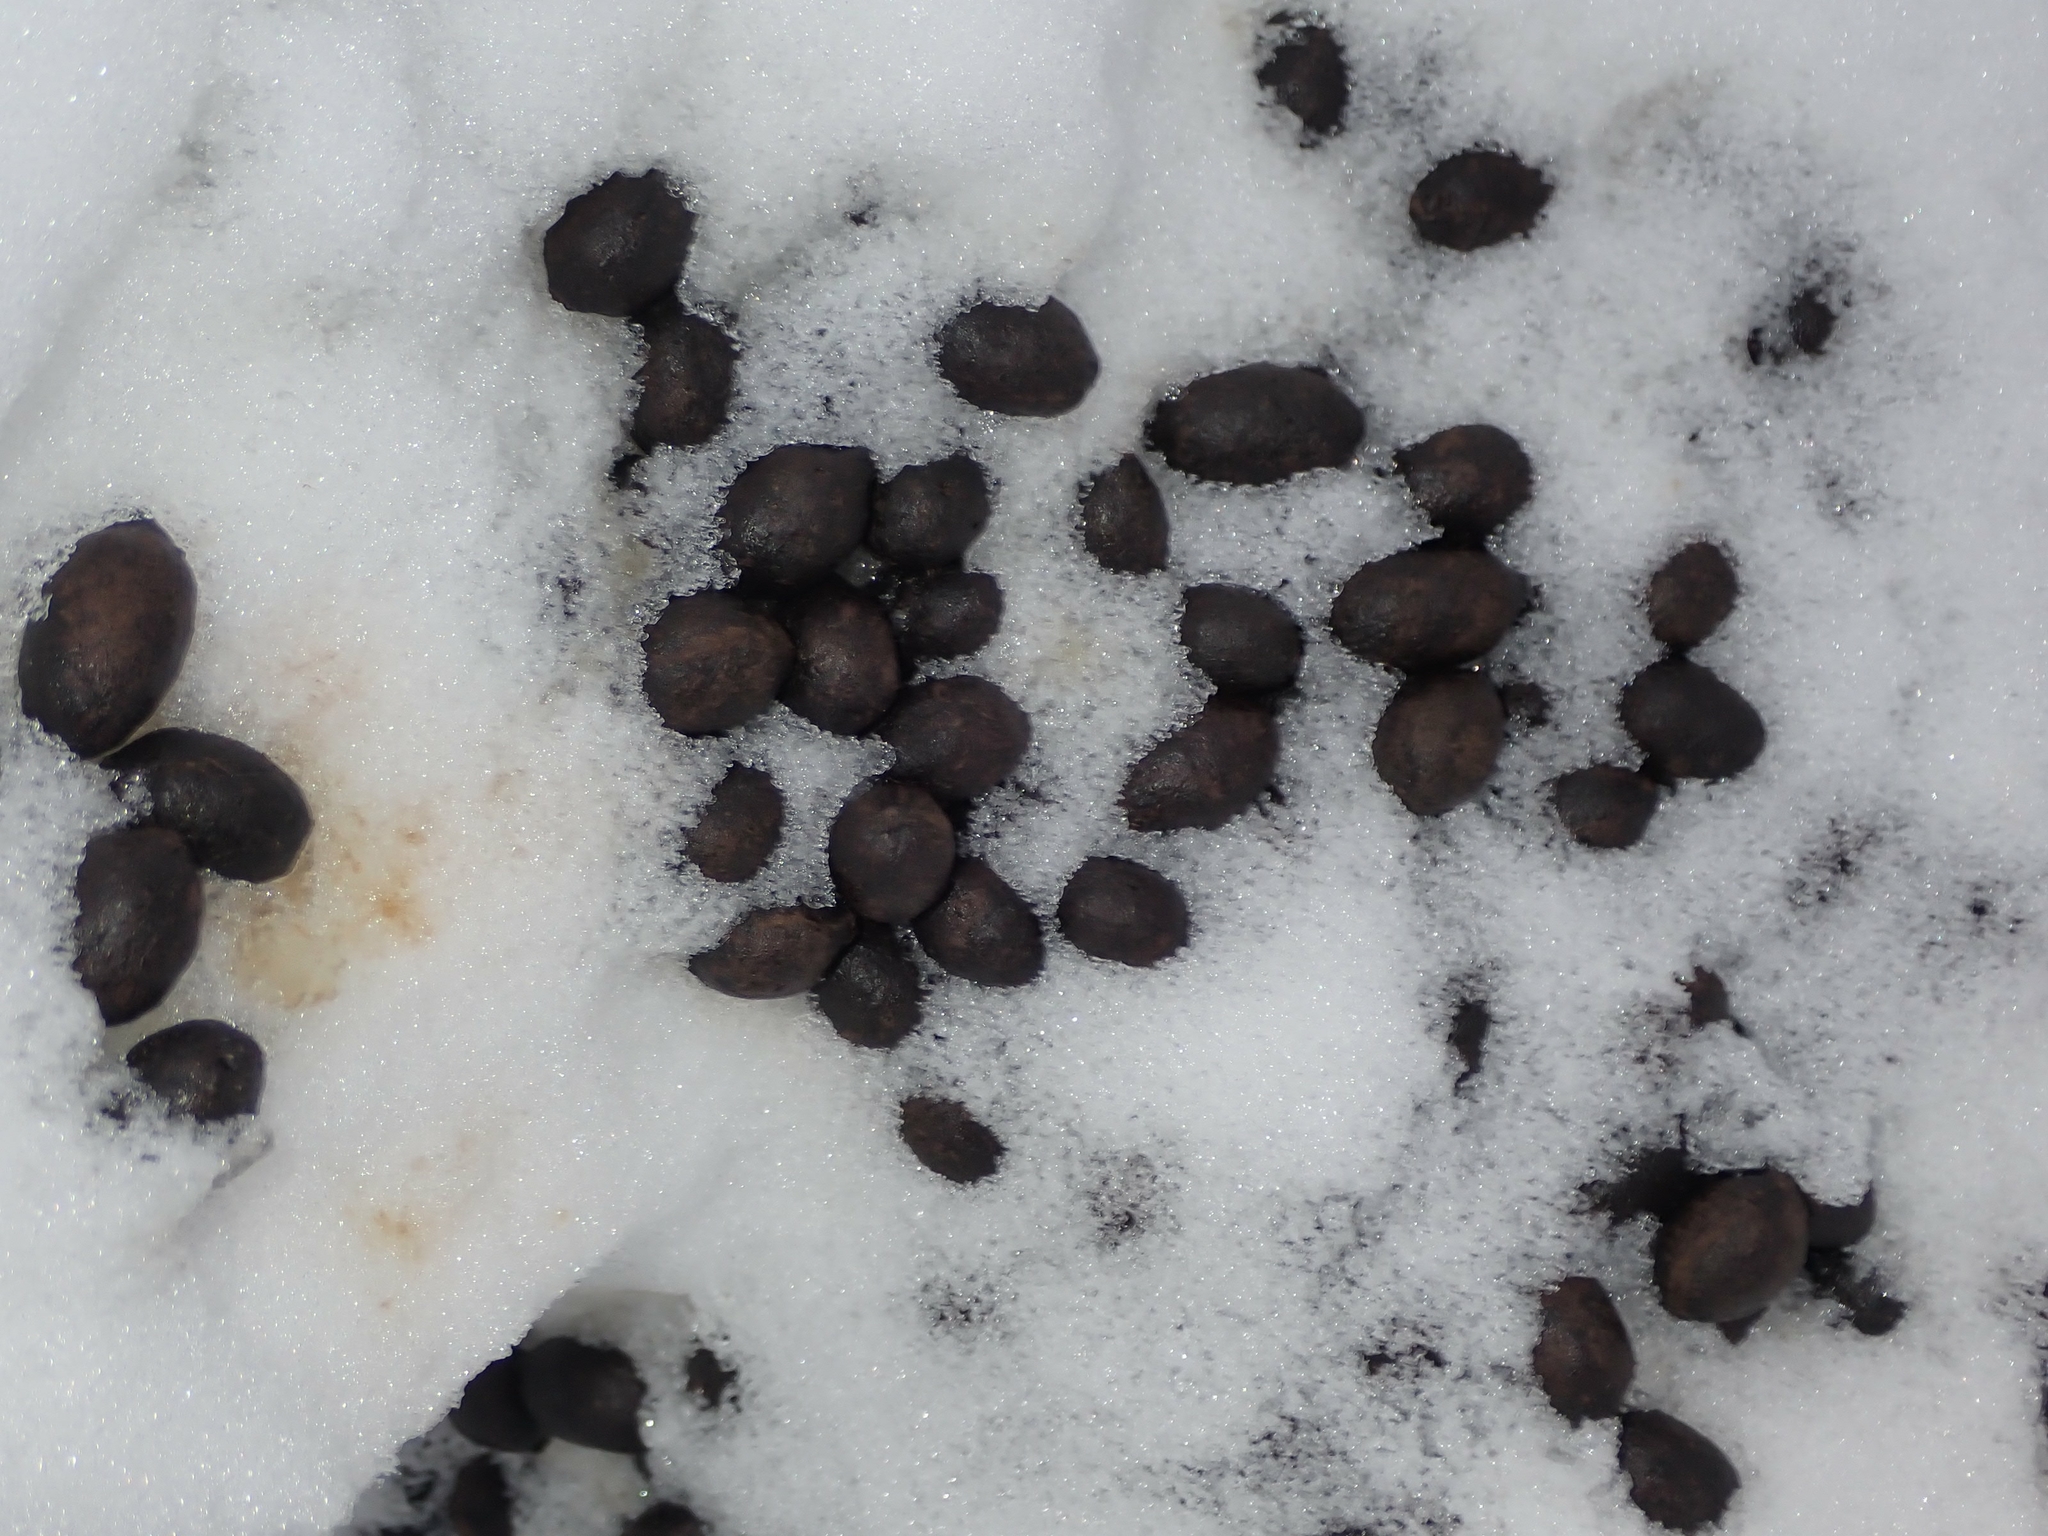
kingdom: Animalia
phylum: Chordata
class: Mammalia
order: Artiodactyla
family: Cervidae
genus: Odocoileus
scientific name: Odocoileus virginianus
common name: White-tailed deer
